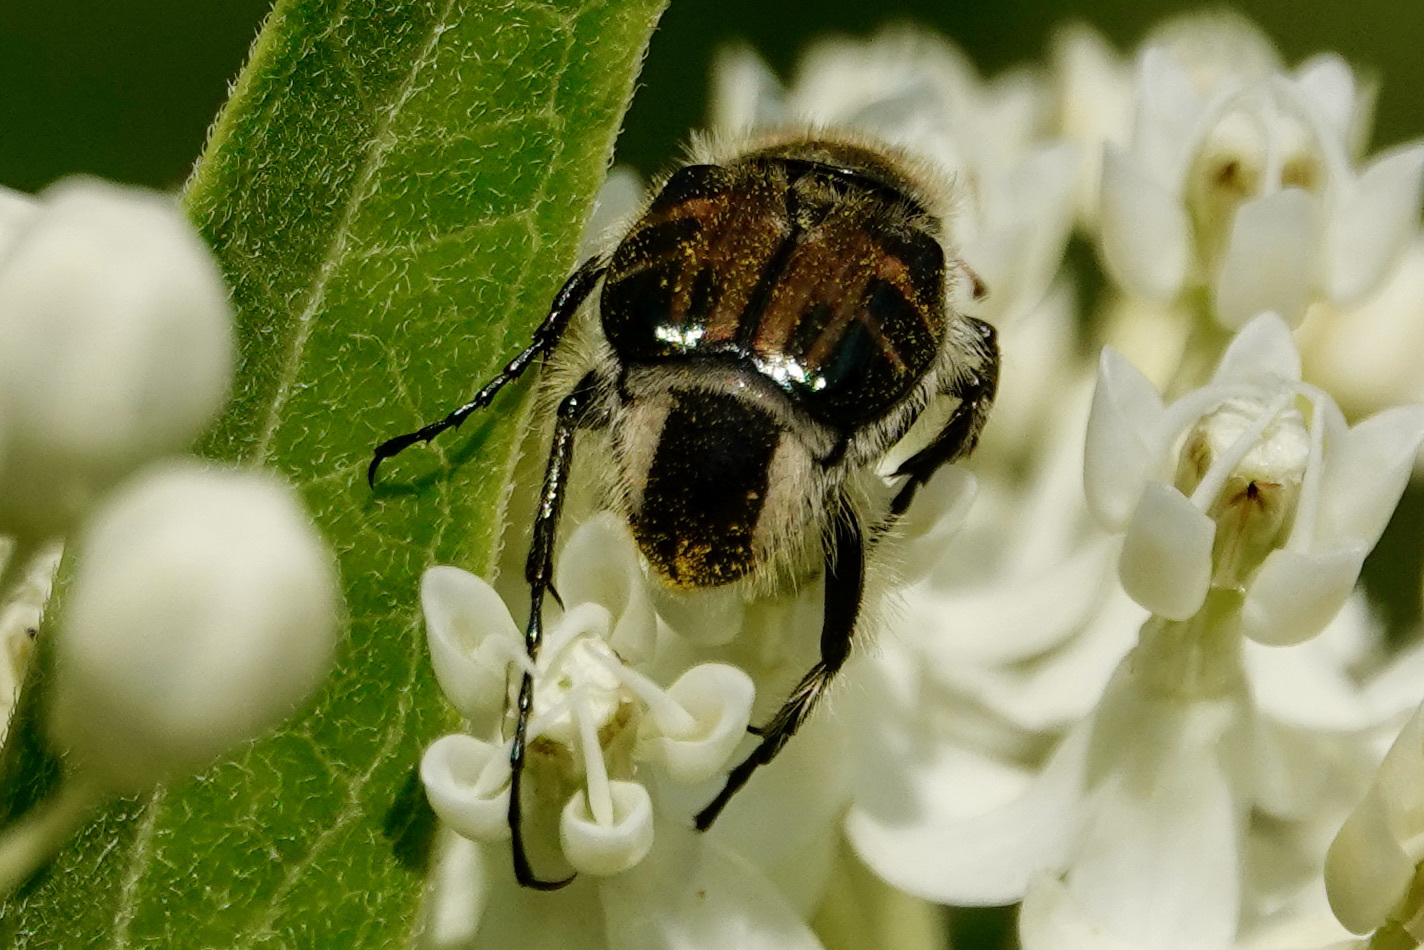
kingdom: Animalia
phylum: Arthropoda
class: Insecta
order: Coleoptera
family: Scarabaeidae
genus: Trichiotinus
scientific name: Trichiotinus affinis
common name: Hairy flower scarab
